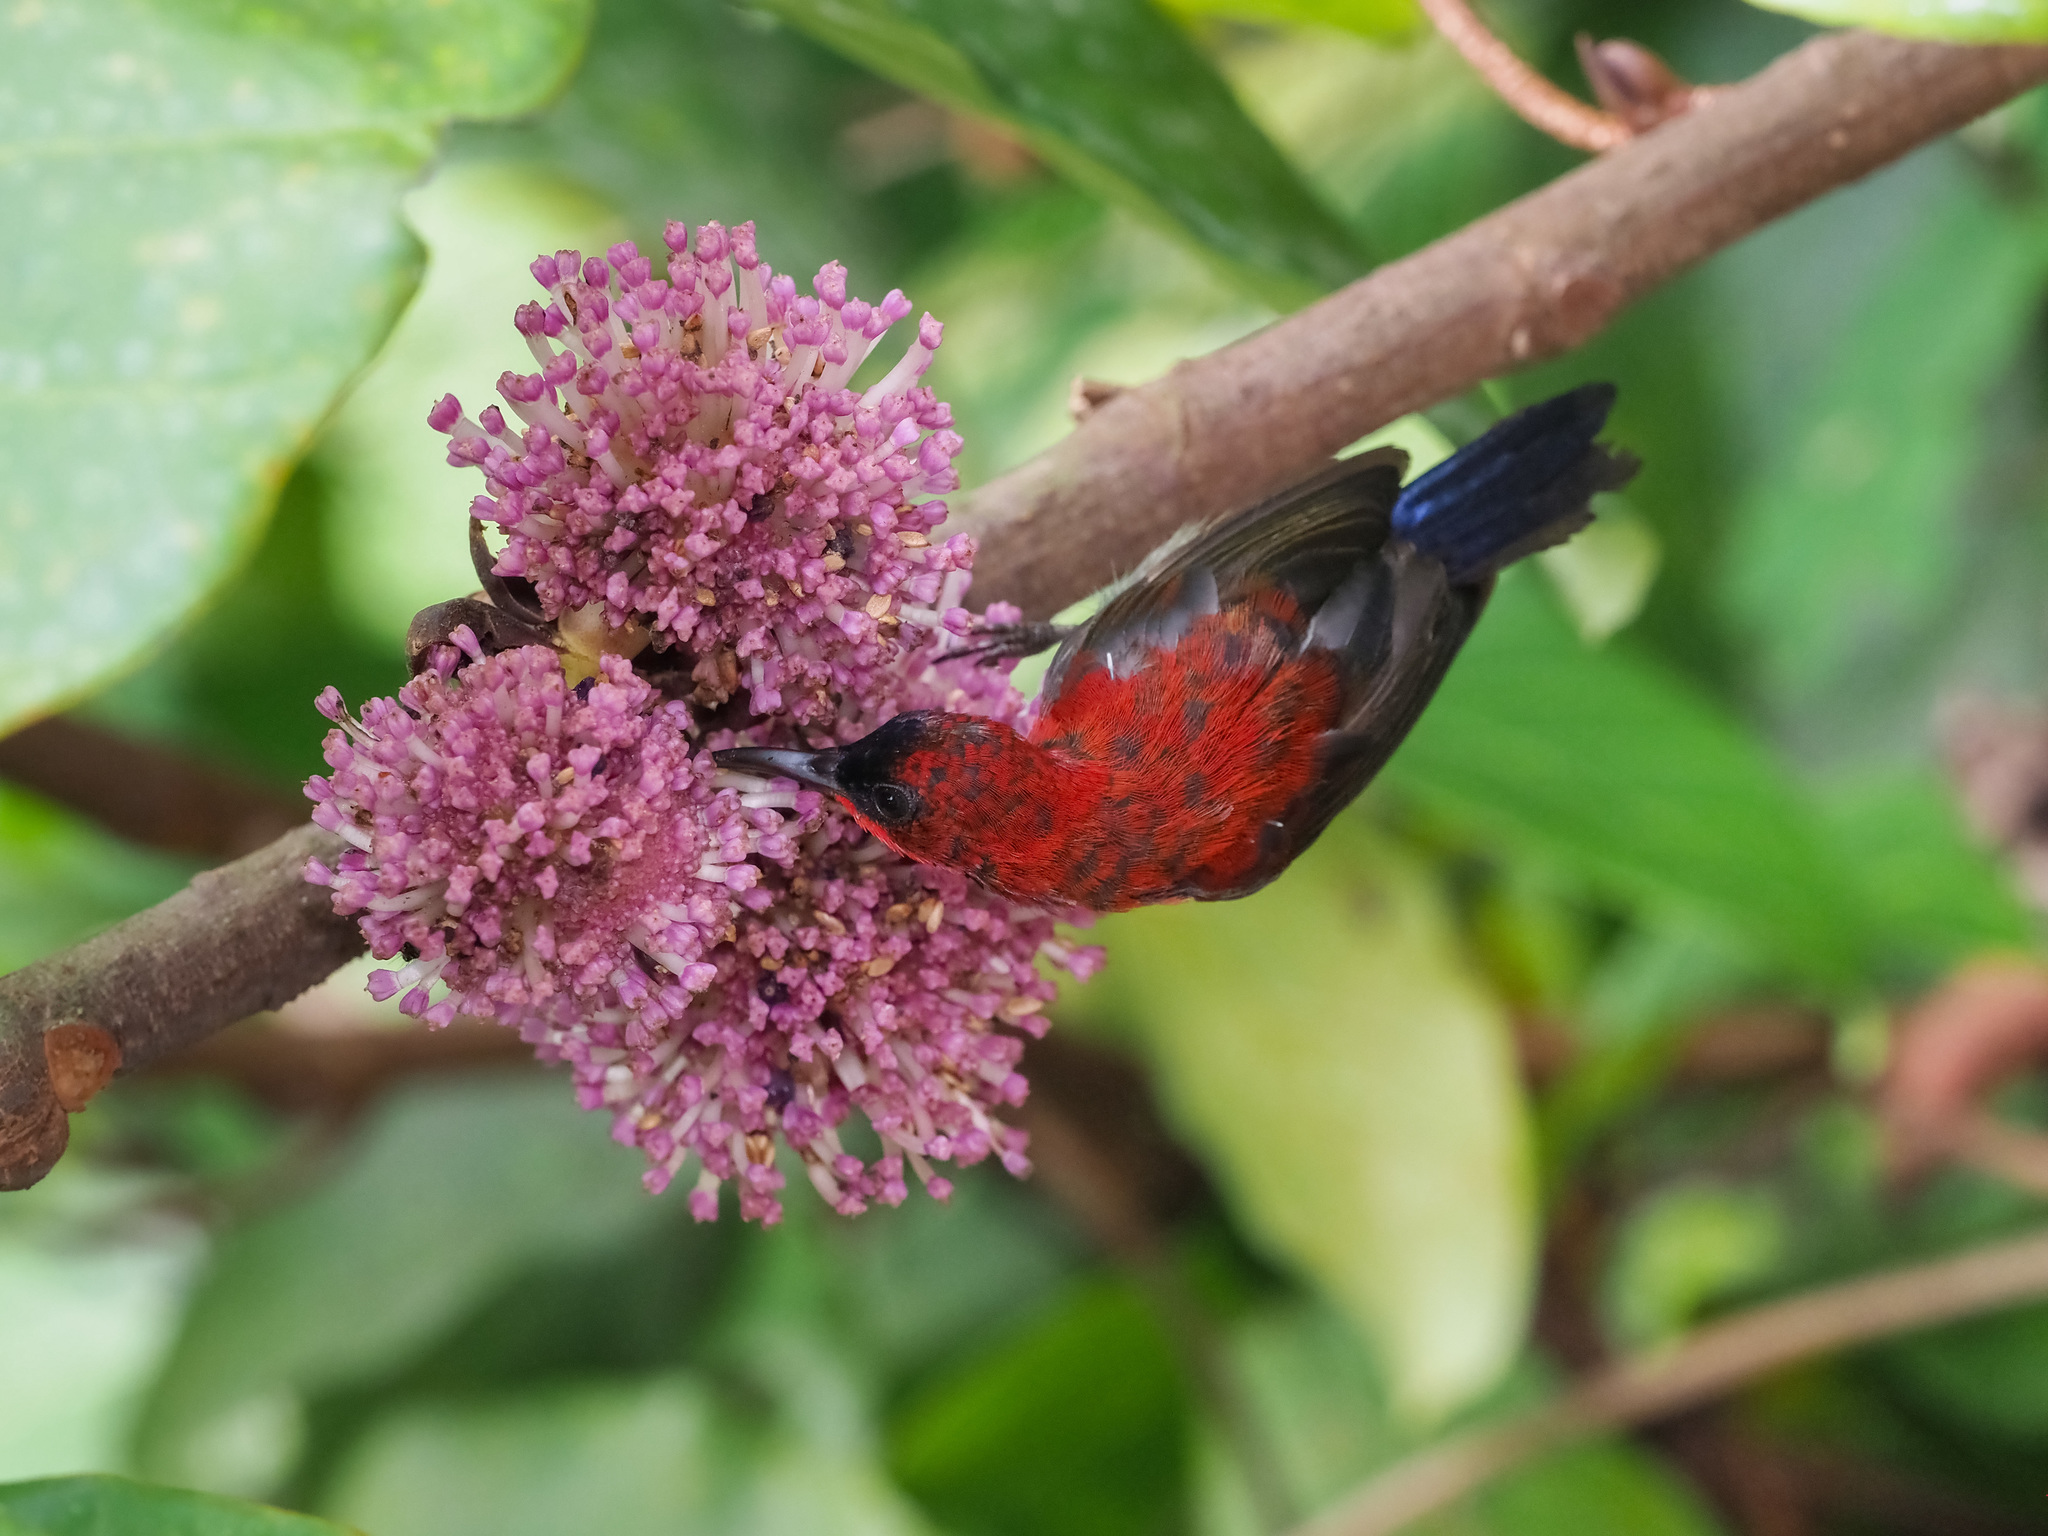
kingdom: Animalia
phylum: Chordata
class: Aves
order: Passeriformes
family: Nectariniidae
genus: Aethopyga
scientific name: Aethopyga siparaja
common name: Crimson sunbird
